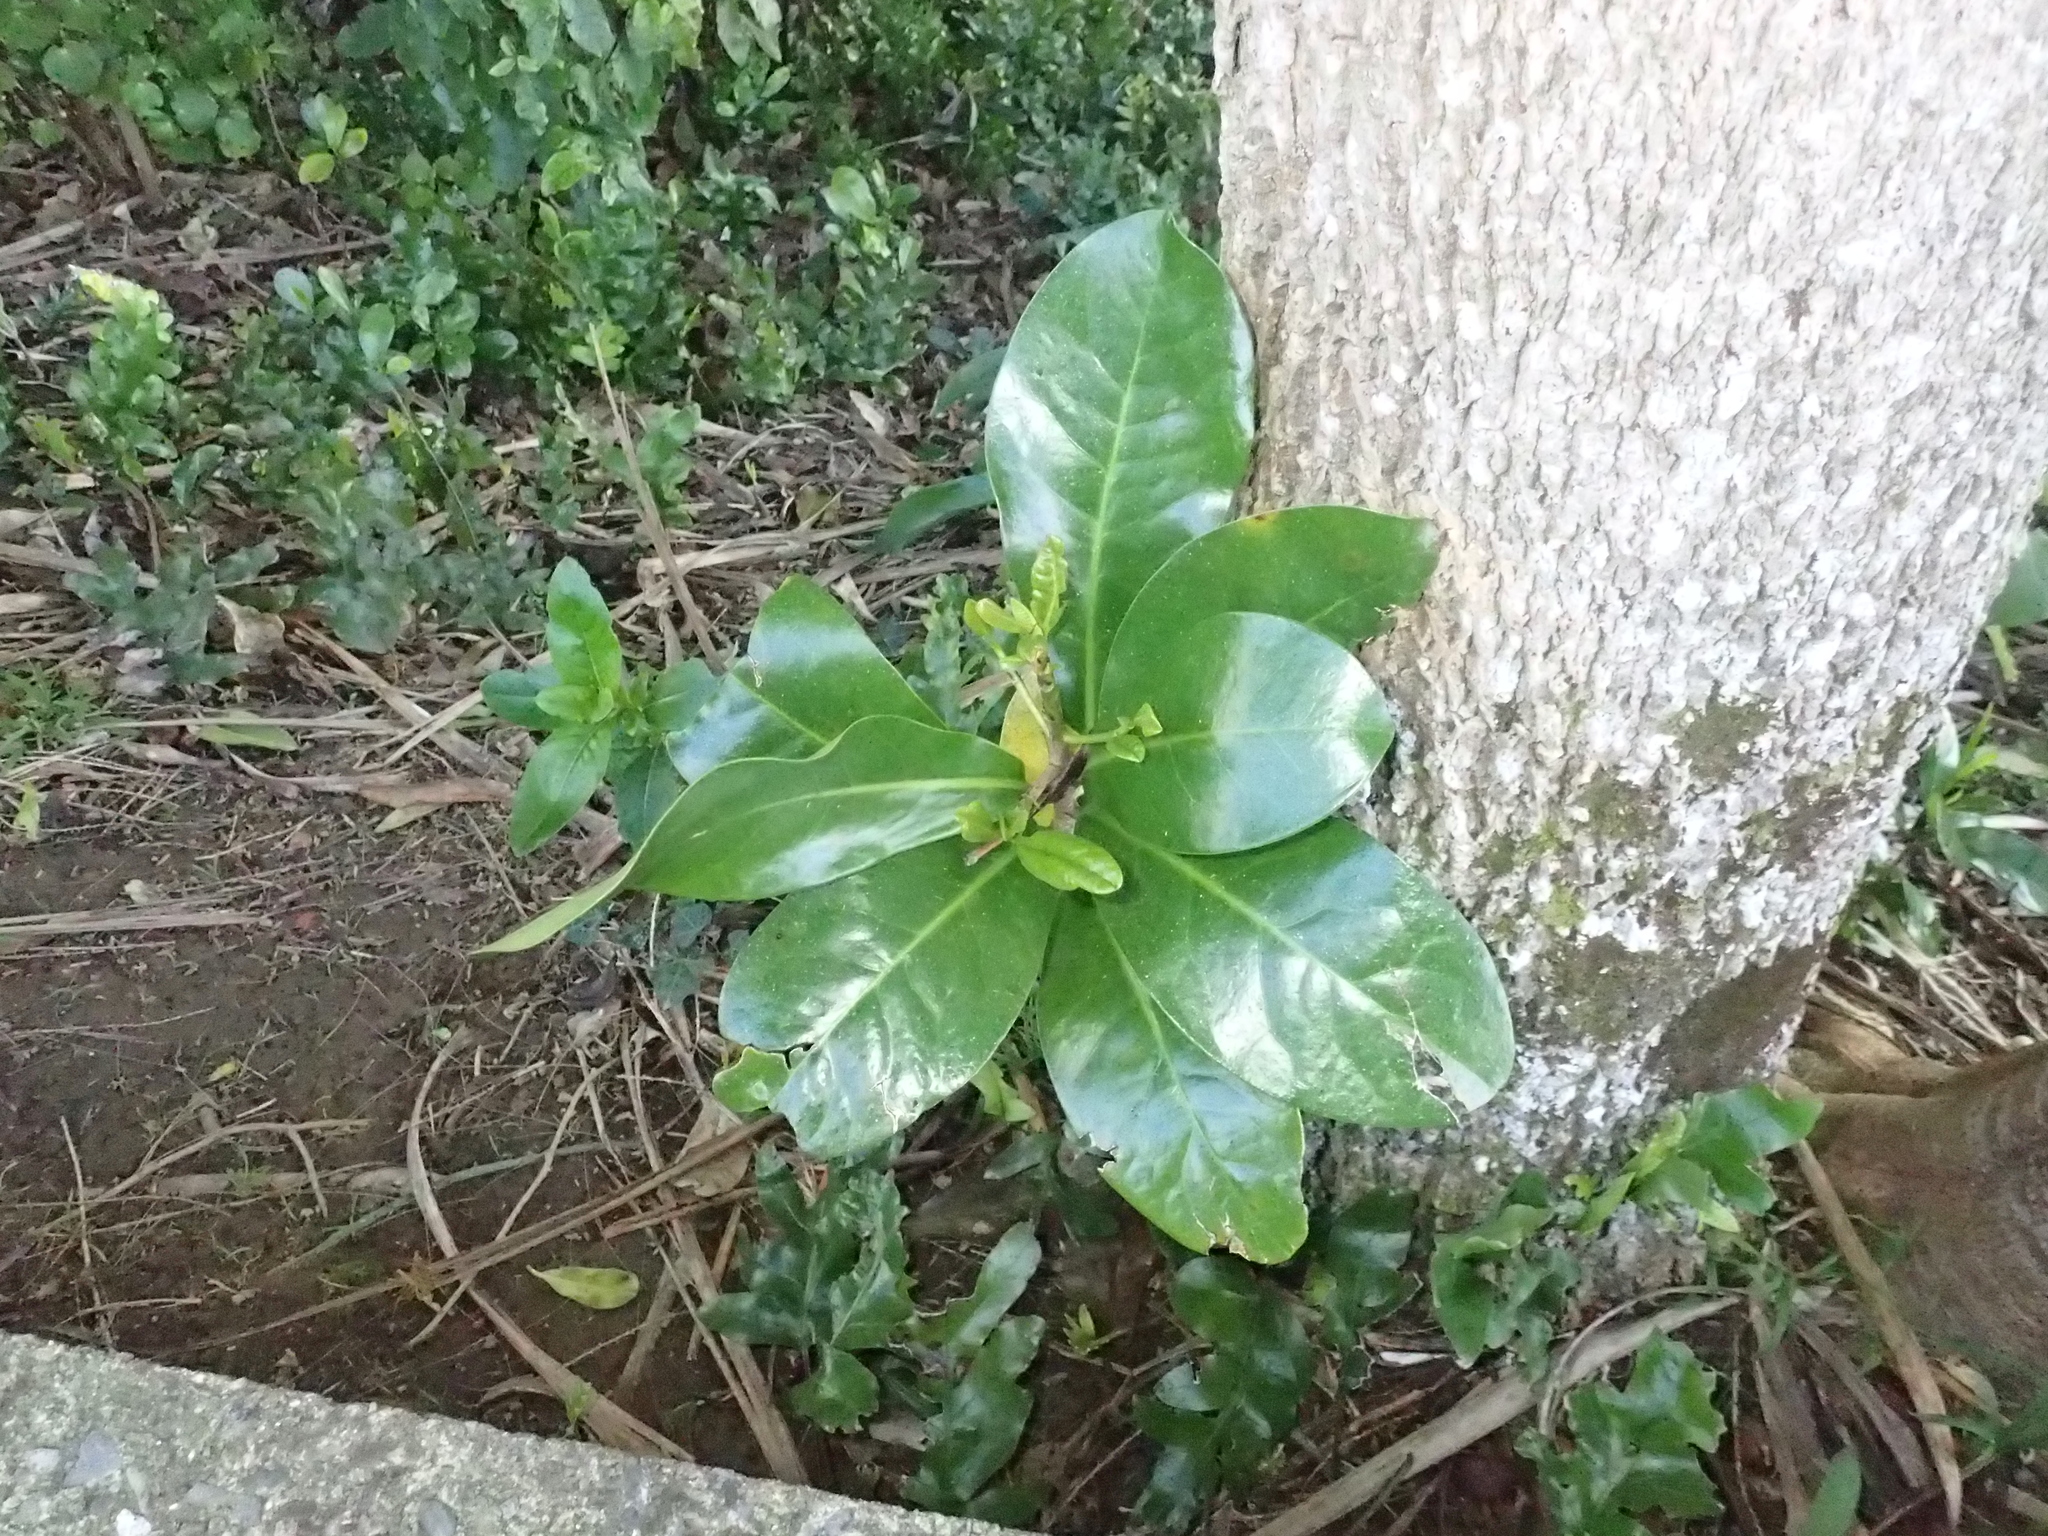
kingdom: Plantae
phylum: Tracheophyta
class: Magnoliopsida
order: Cucurbitales
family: Corynocarpaceae
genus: Corynocarpus
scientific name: Corynocarpus laevigatus
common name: New zealand laurel
